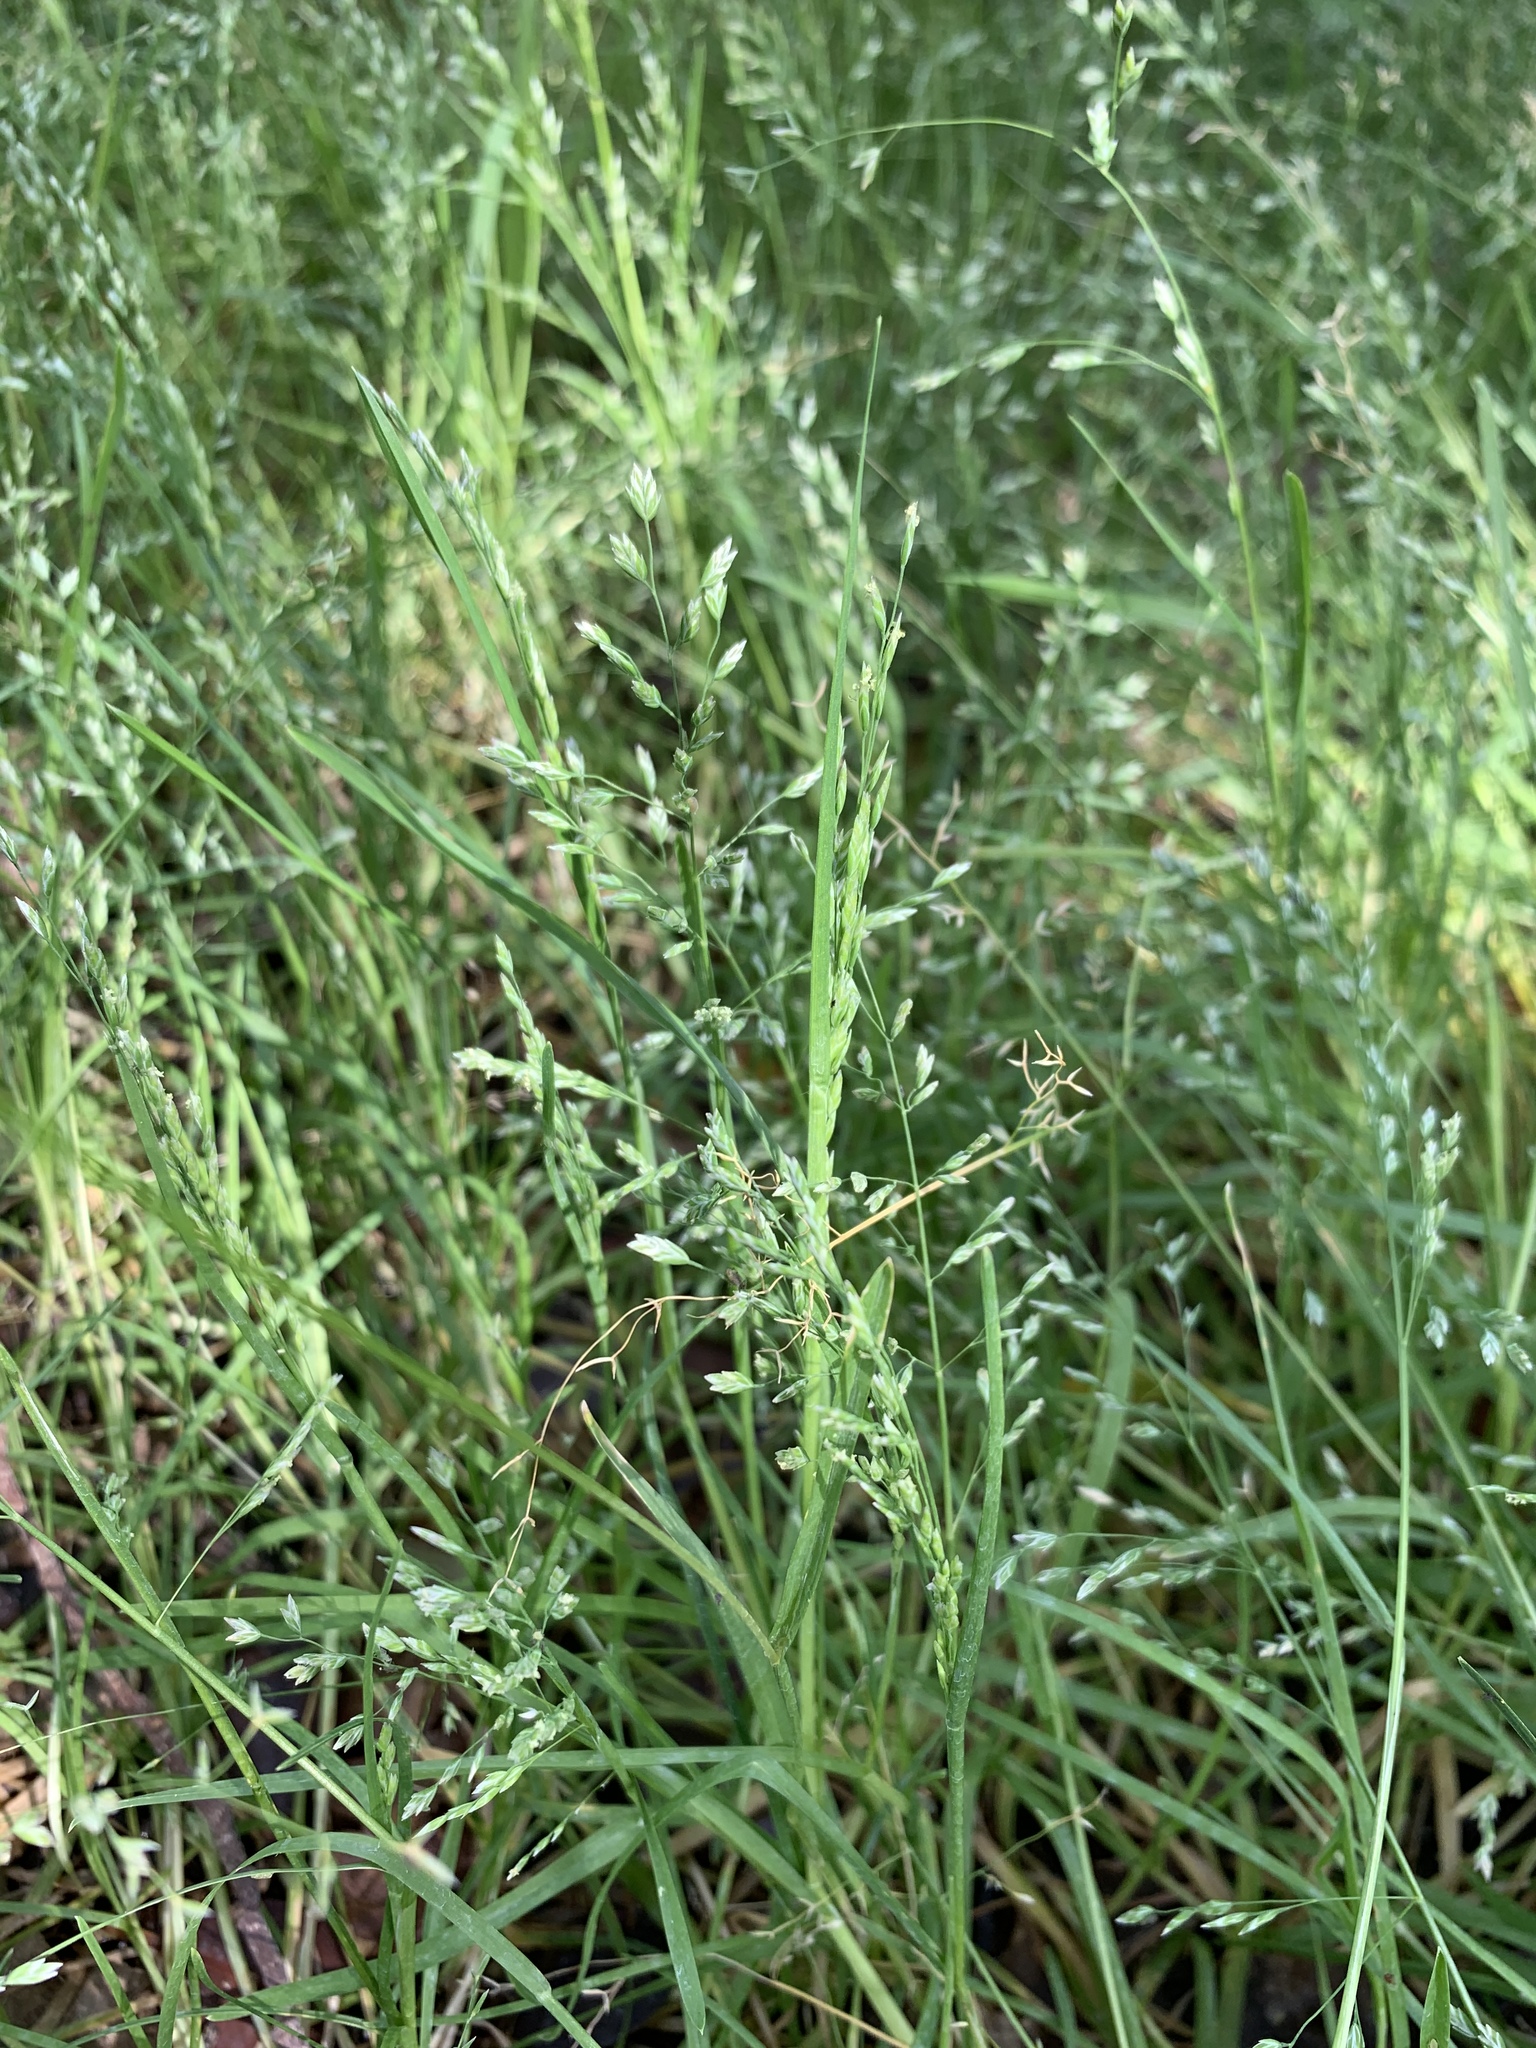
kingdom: Plantae
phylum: Tracheophyta
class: Liliopsida
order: Poales
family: Poaceae
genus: Poa
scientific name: Poa annua
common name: Annual bluegrass
